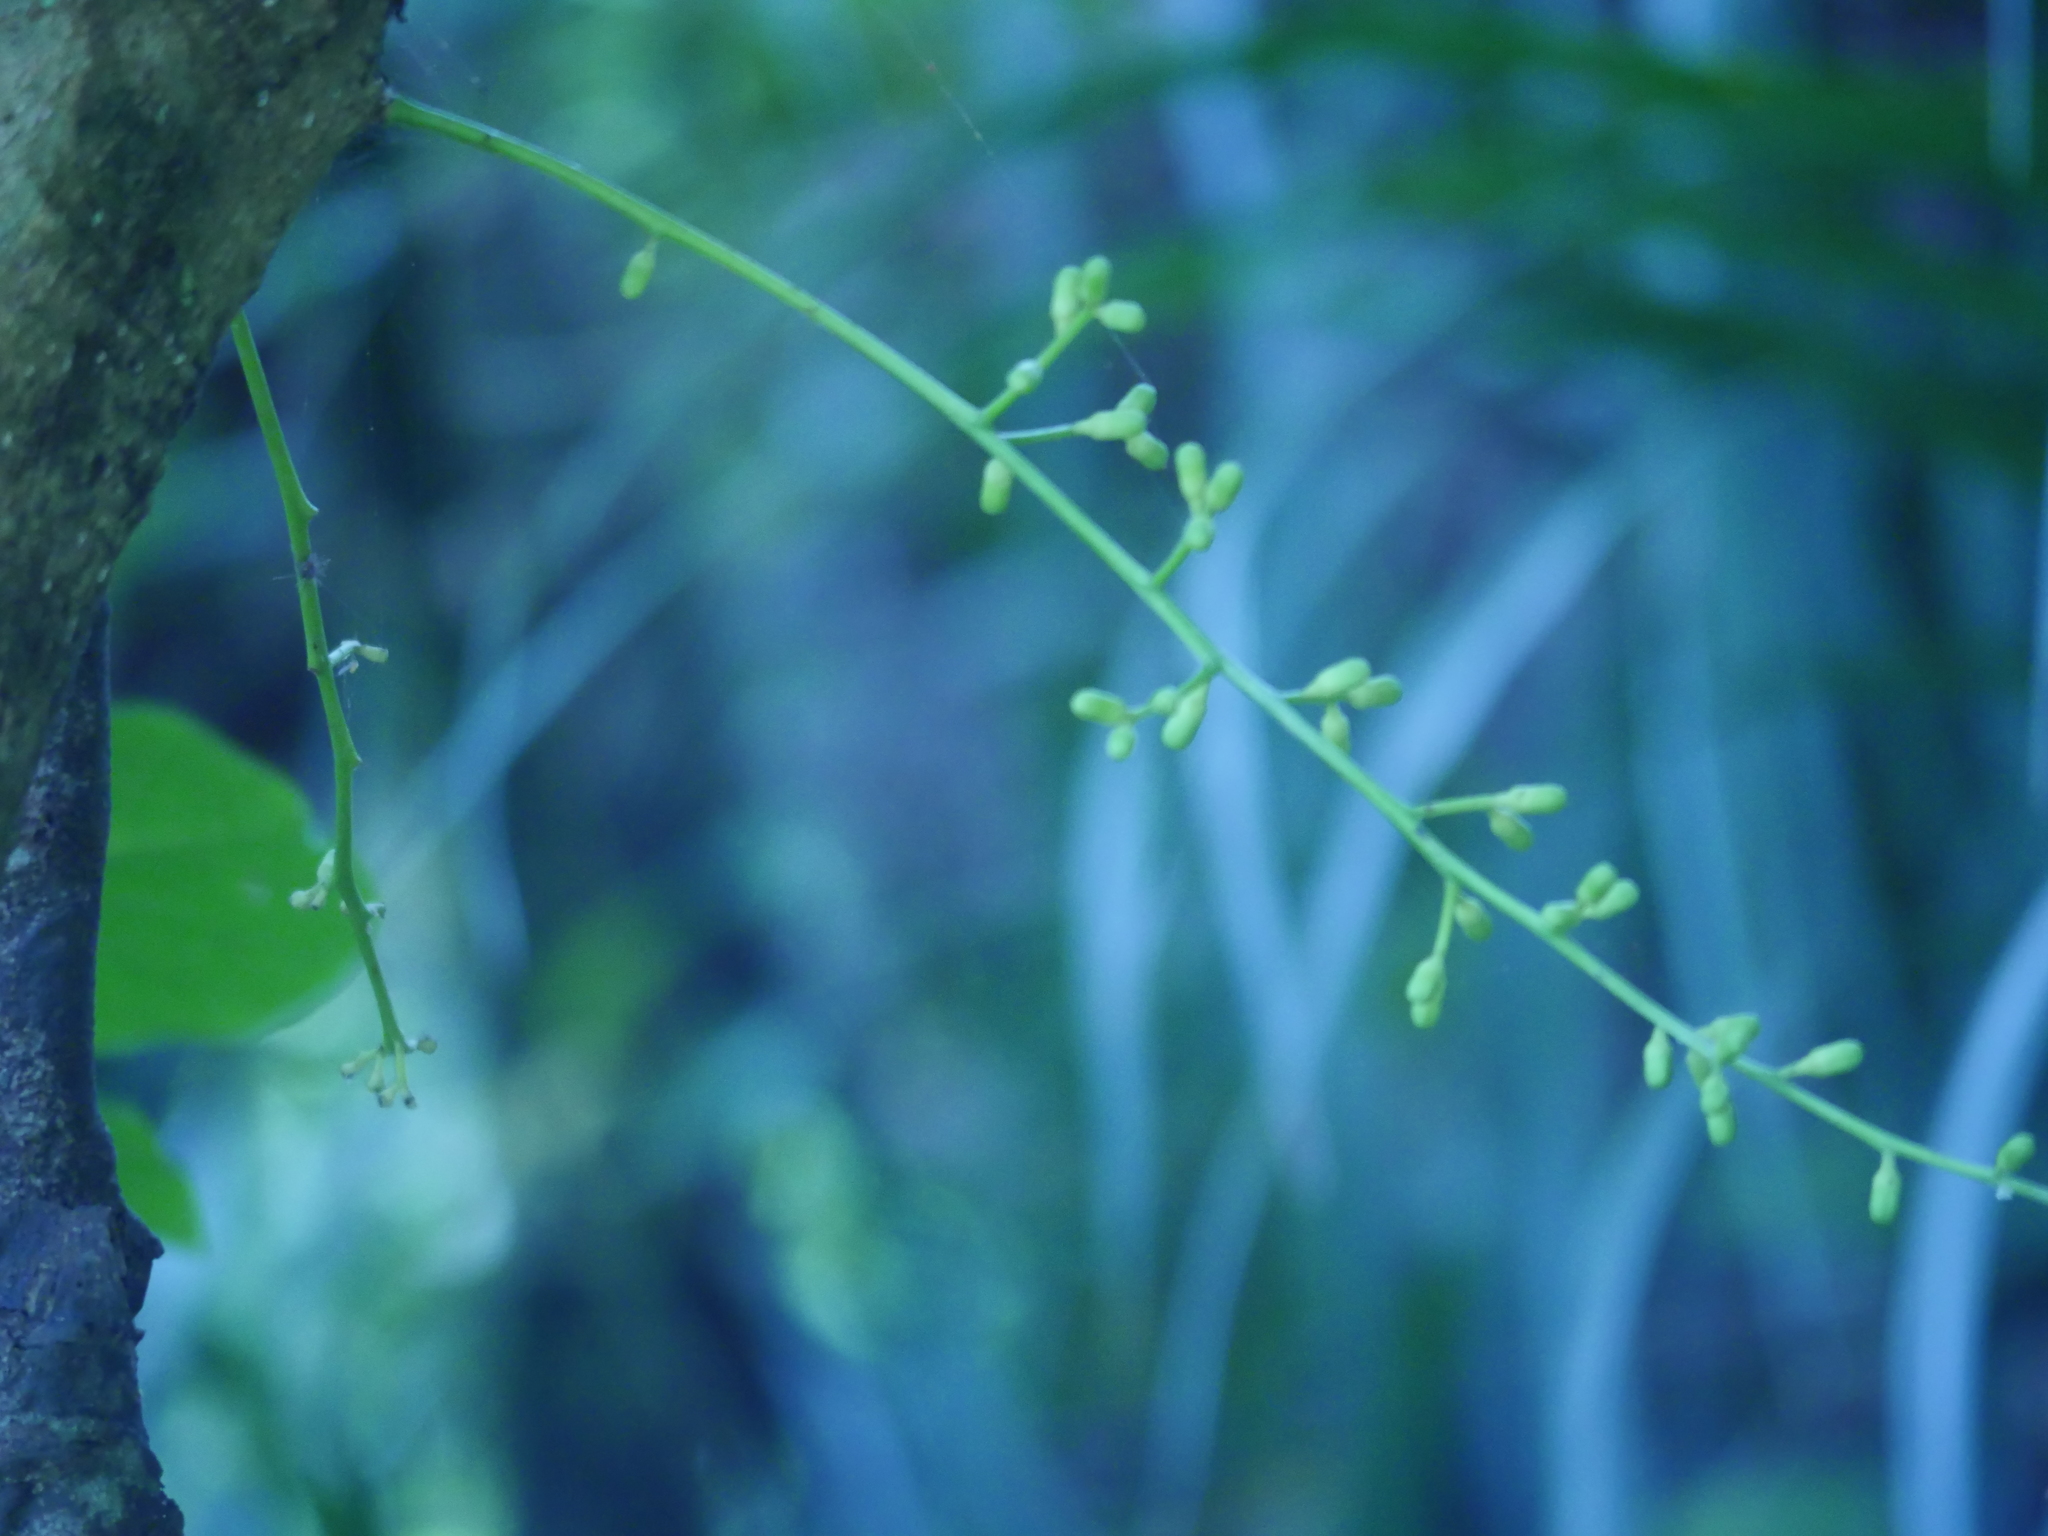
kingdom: Plantae
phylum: Tracheophyta
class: Magnoliopsida
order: Sapindales
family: Meliaceae
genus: Didymocheton
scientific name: Didymocheton spectabilis
